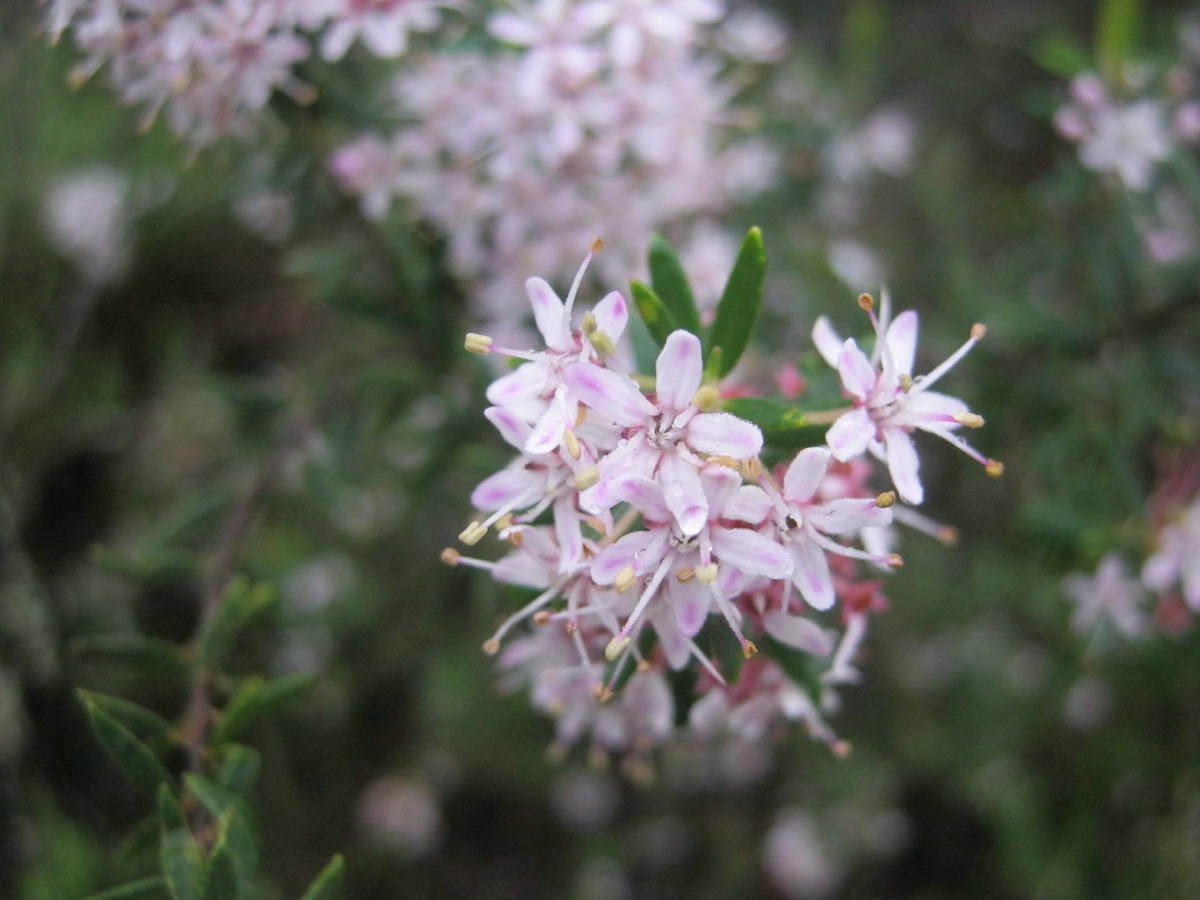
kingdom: Plantae
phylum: Tracheophyta
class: Magnoliopsida
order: Sapindales
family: Rutaceae
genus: Agathosma
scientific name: Agathosma ovata
